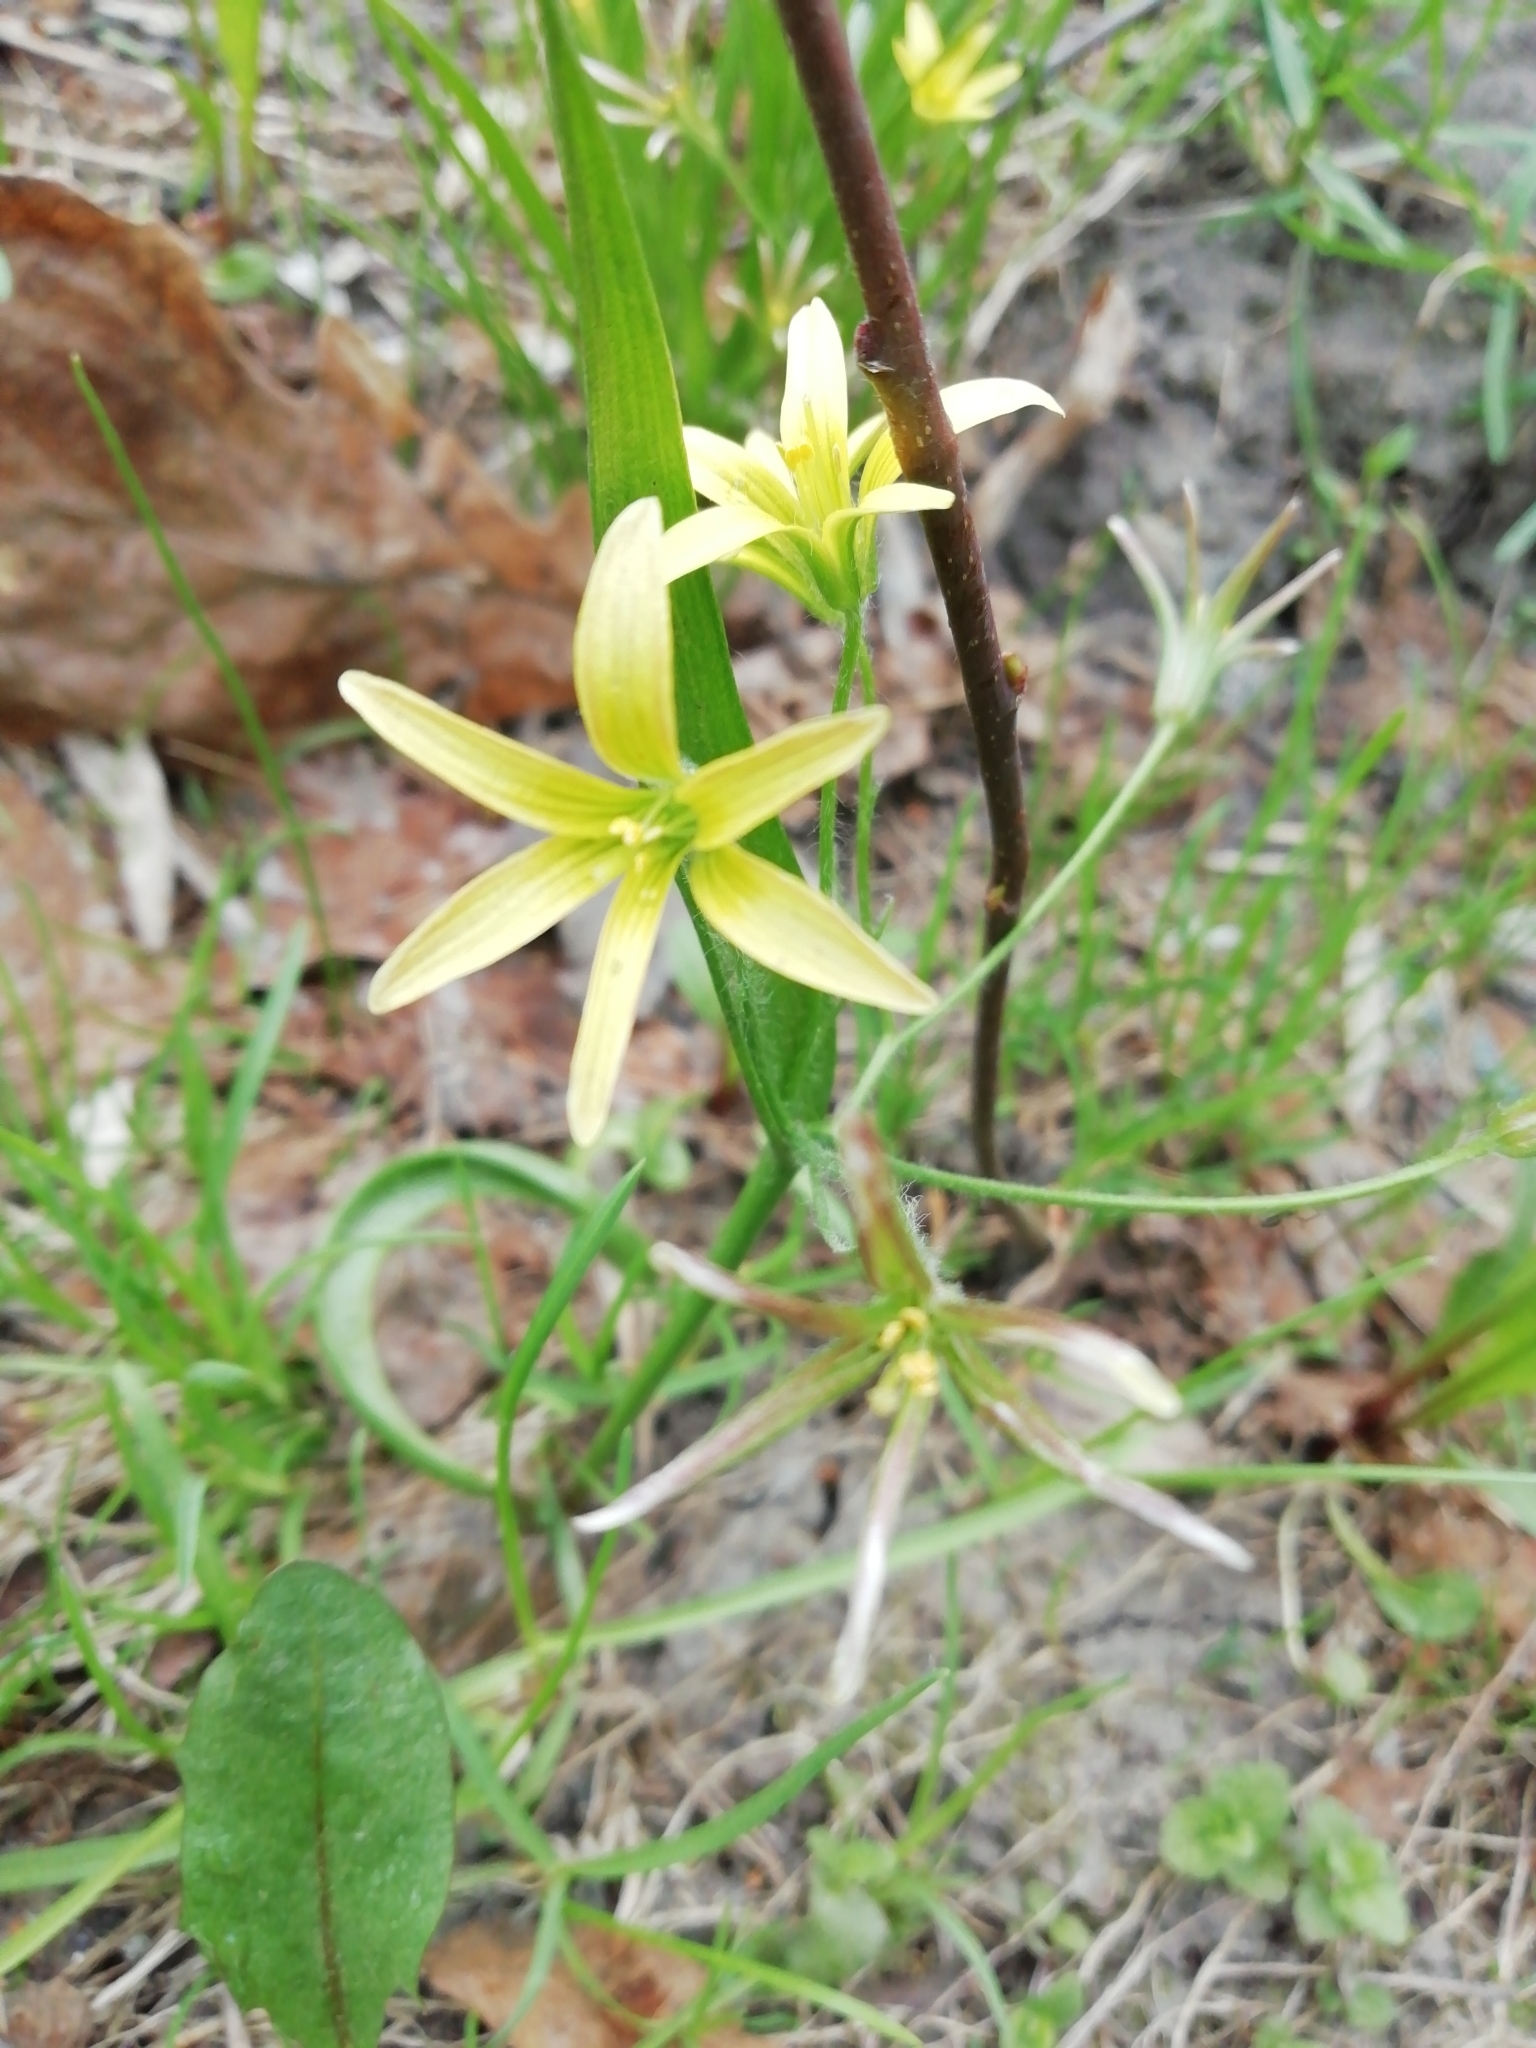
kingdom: Plantae
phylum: Tracheophyta
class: Liliopsida
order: Liliales
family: Liliaceae
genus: Gagea
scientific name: Gagea granulosa
